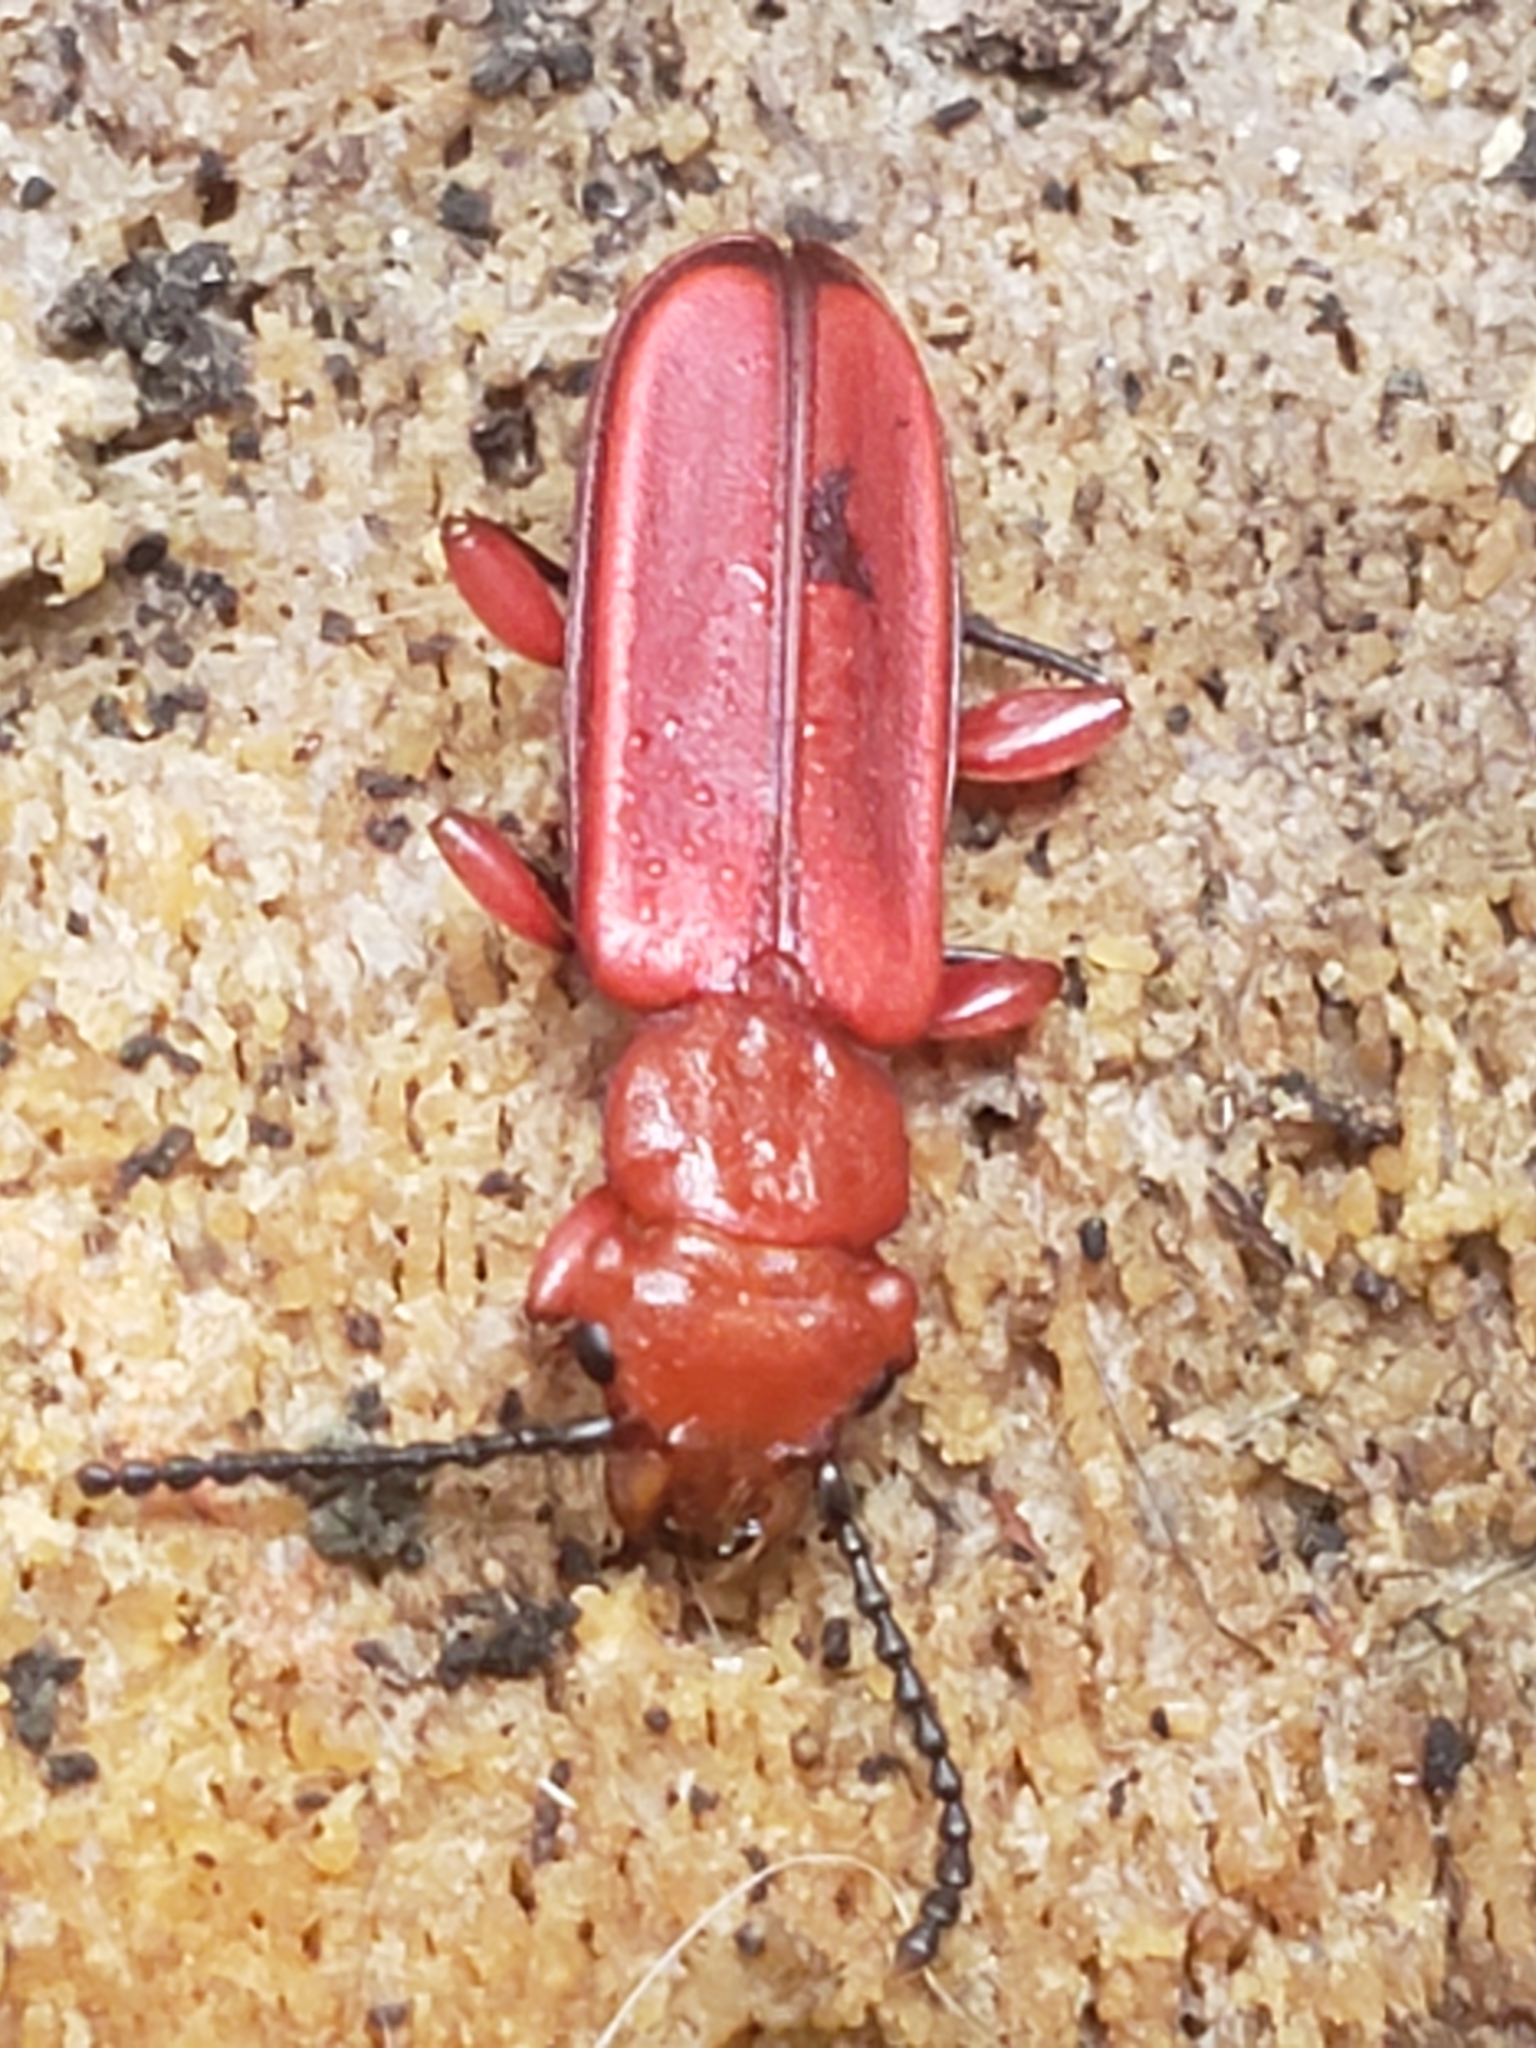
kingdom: Animalia
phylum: Arthropoda
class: Insecta
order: Coleoptera
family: Cucujidae
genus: Cucujus
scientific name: Cucujus clavipes
